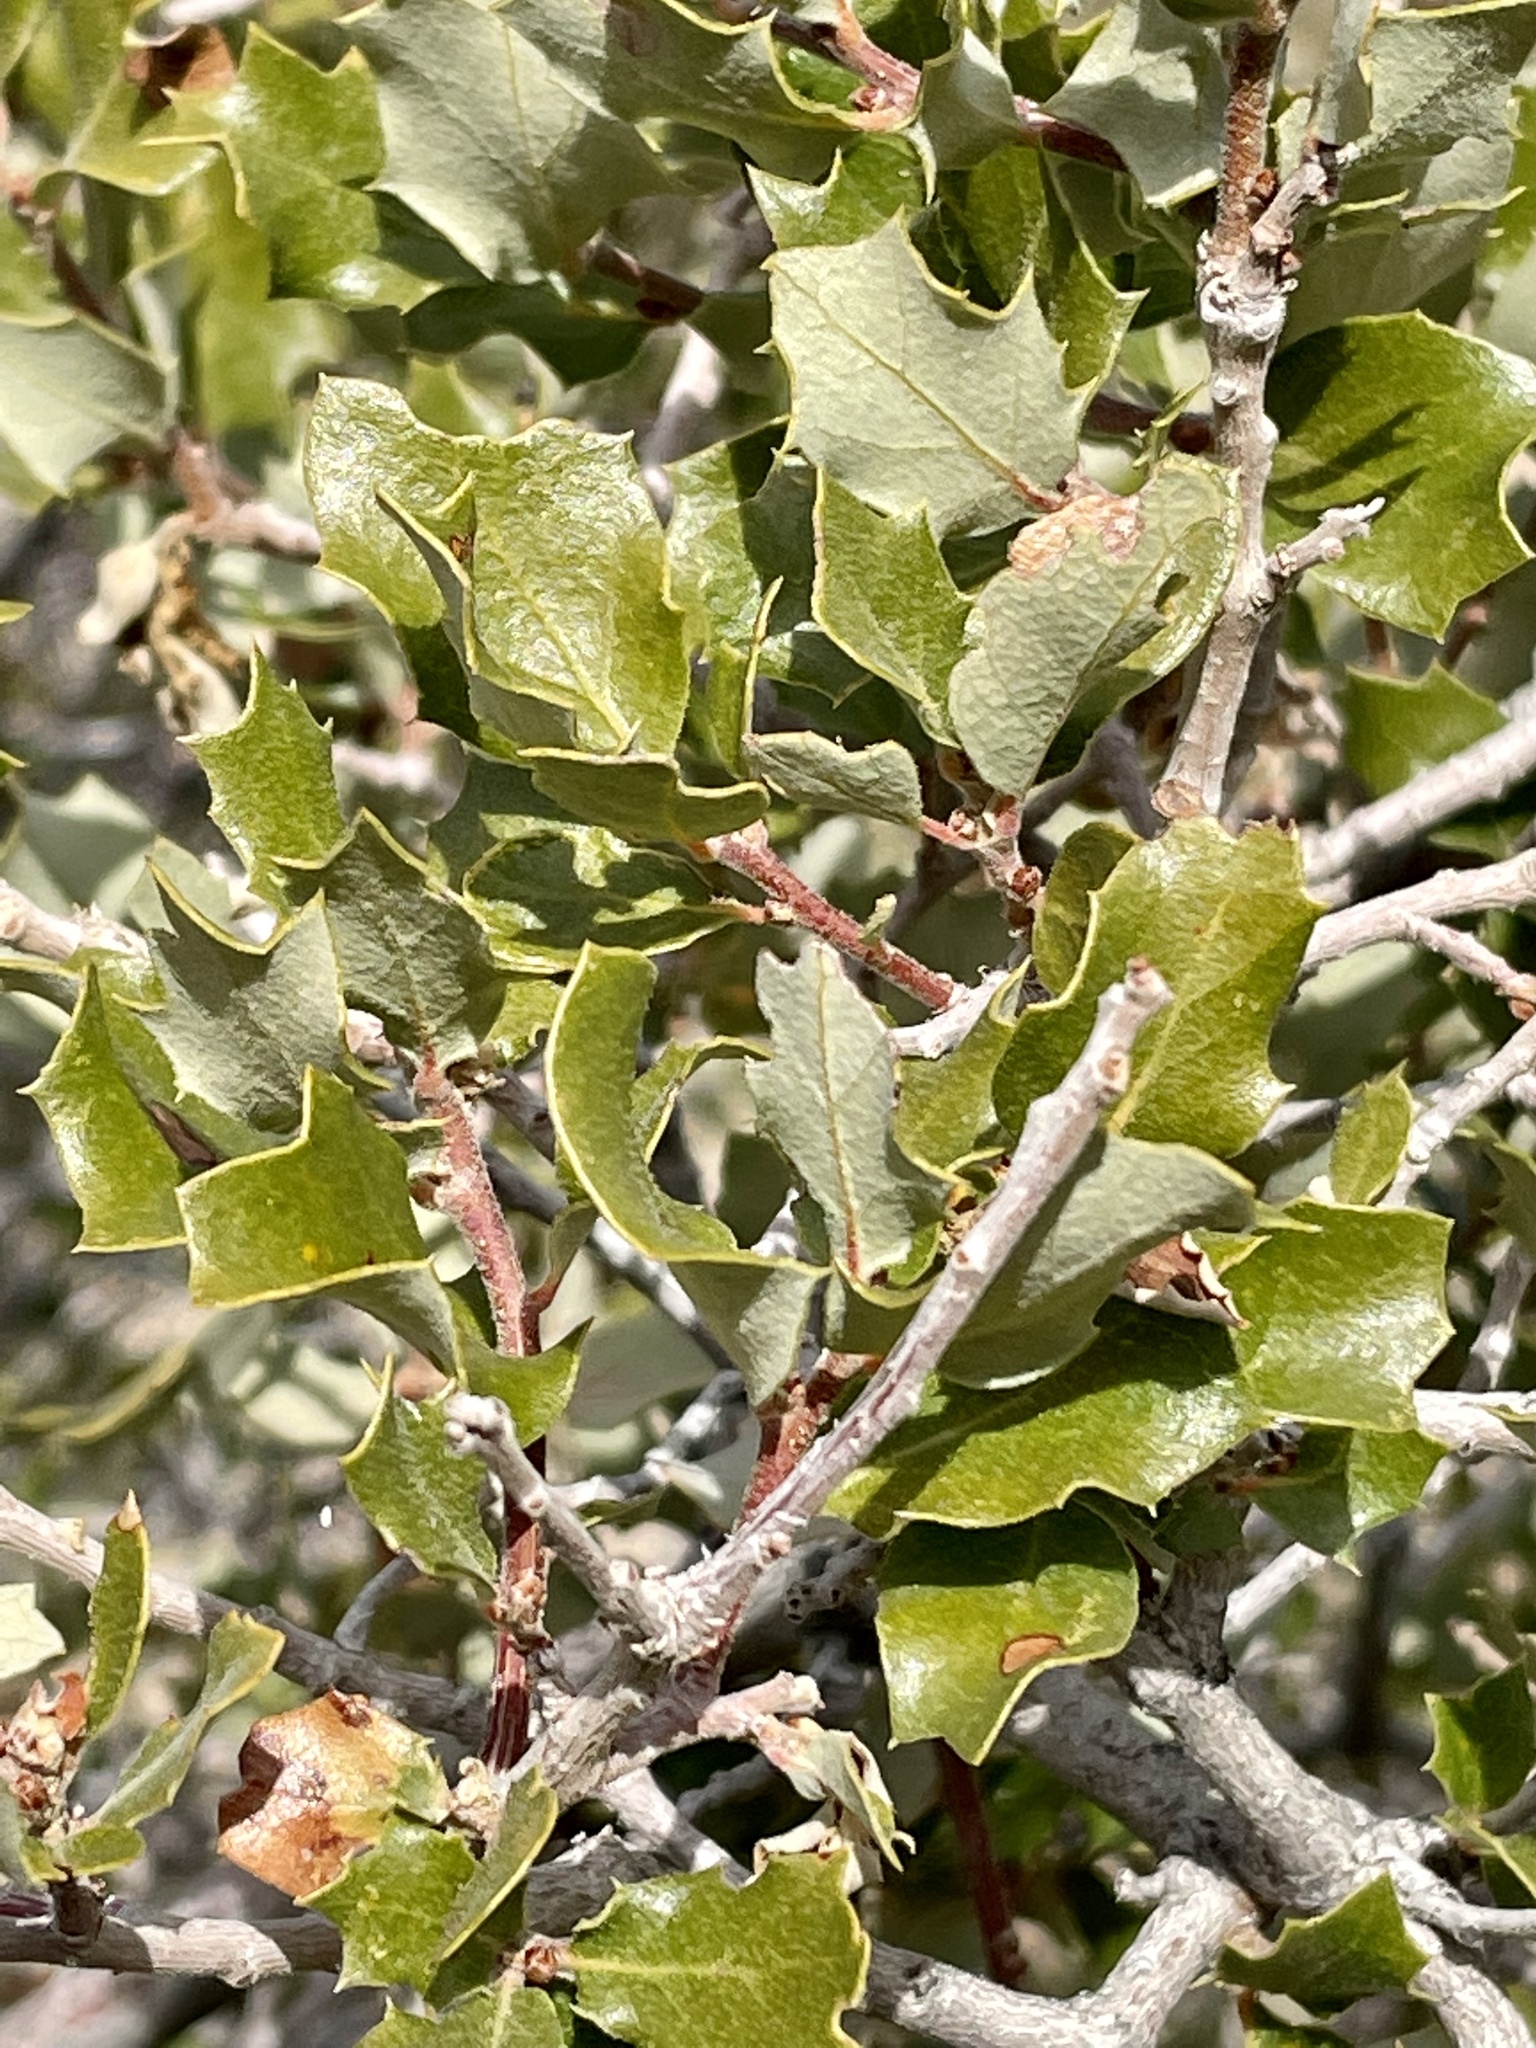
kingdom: Plantae
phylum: Tracheophyta
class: Magnoliopsida
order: Fagales
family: Fagaceae
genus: Quercus
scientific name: Quercus cornelius-mulleri
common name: Muller oak
